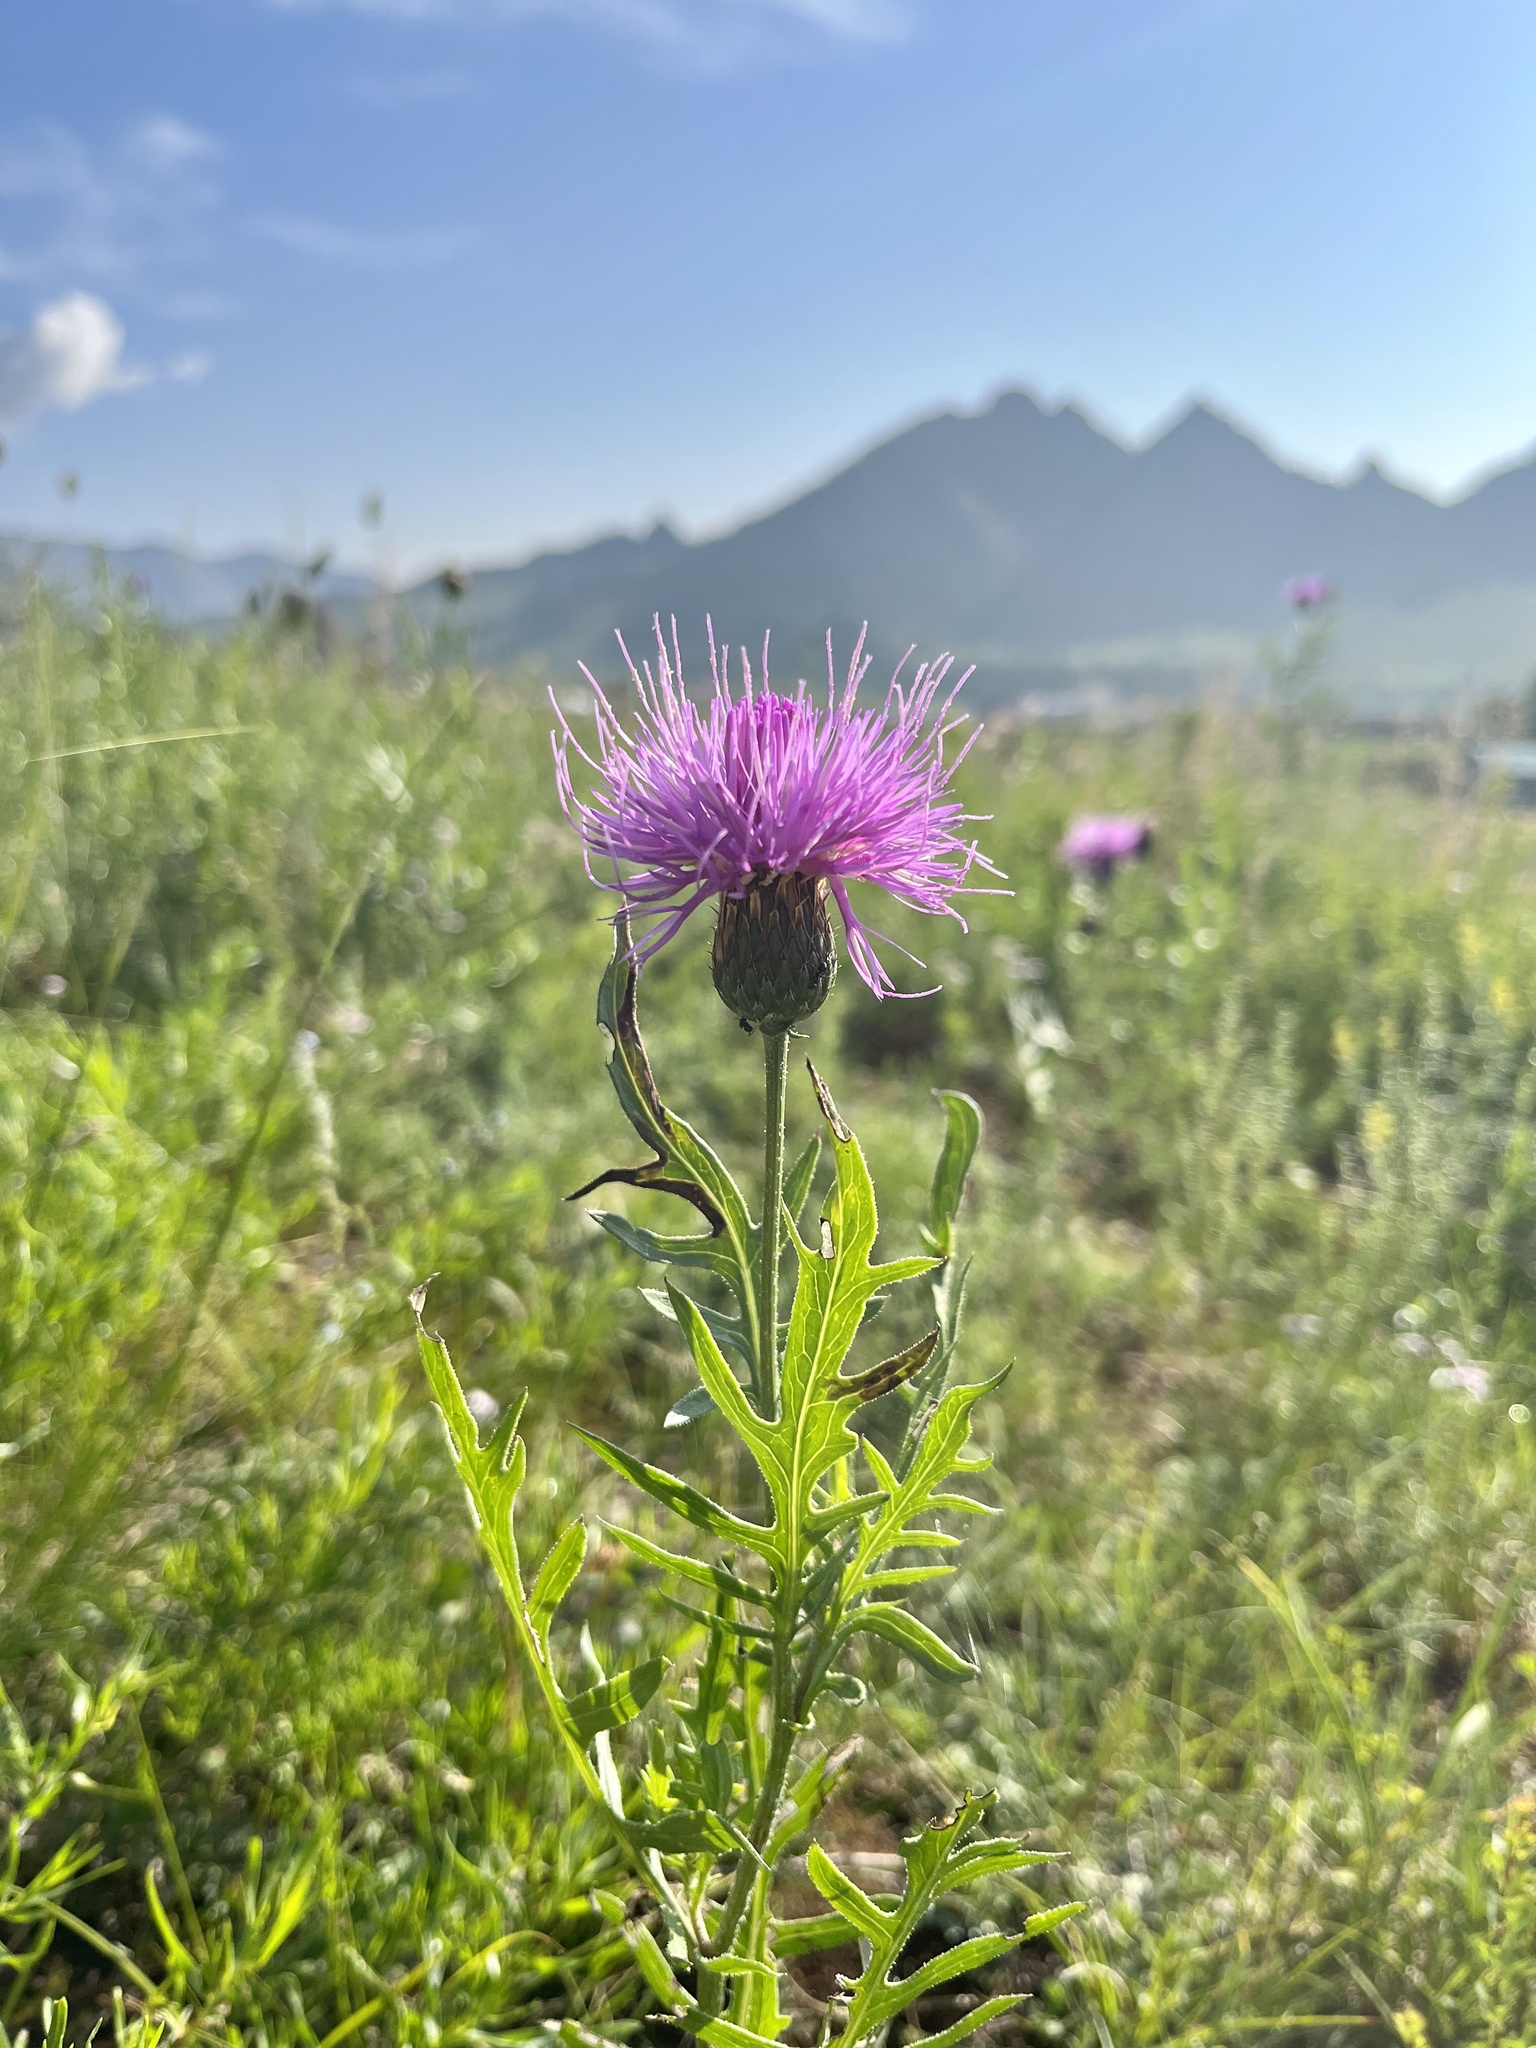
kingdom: Plantae
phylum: Tracheophyta
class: Magnoliopsida
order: Asterales
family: Asteraceae
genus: Klasea
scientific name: Klasea centauroides
